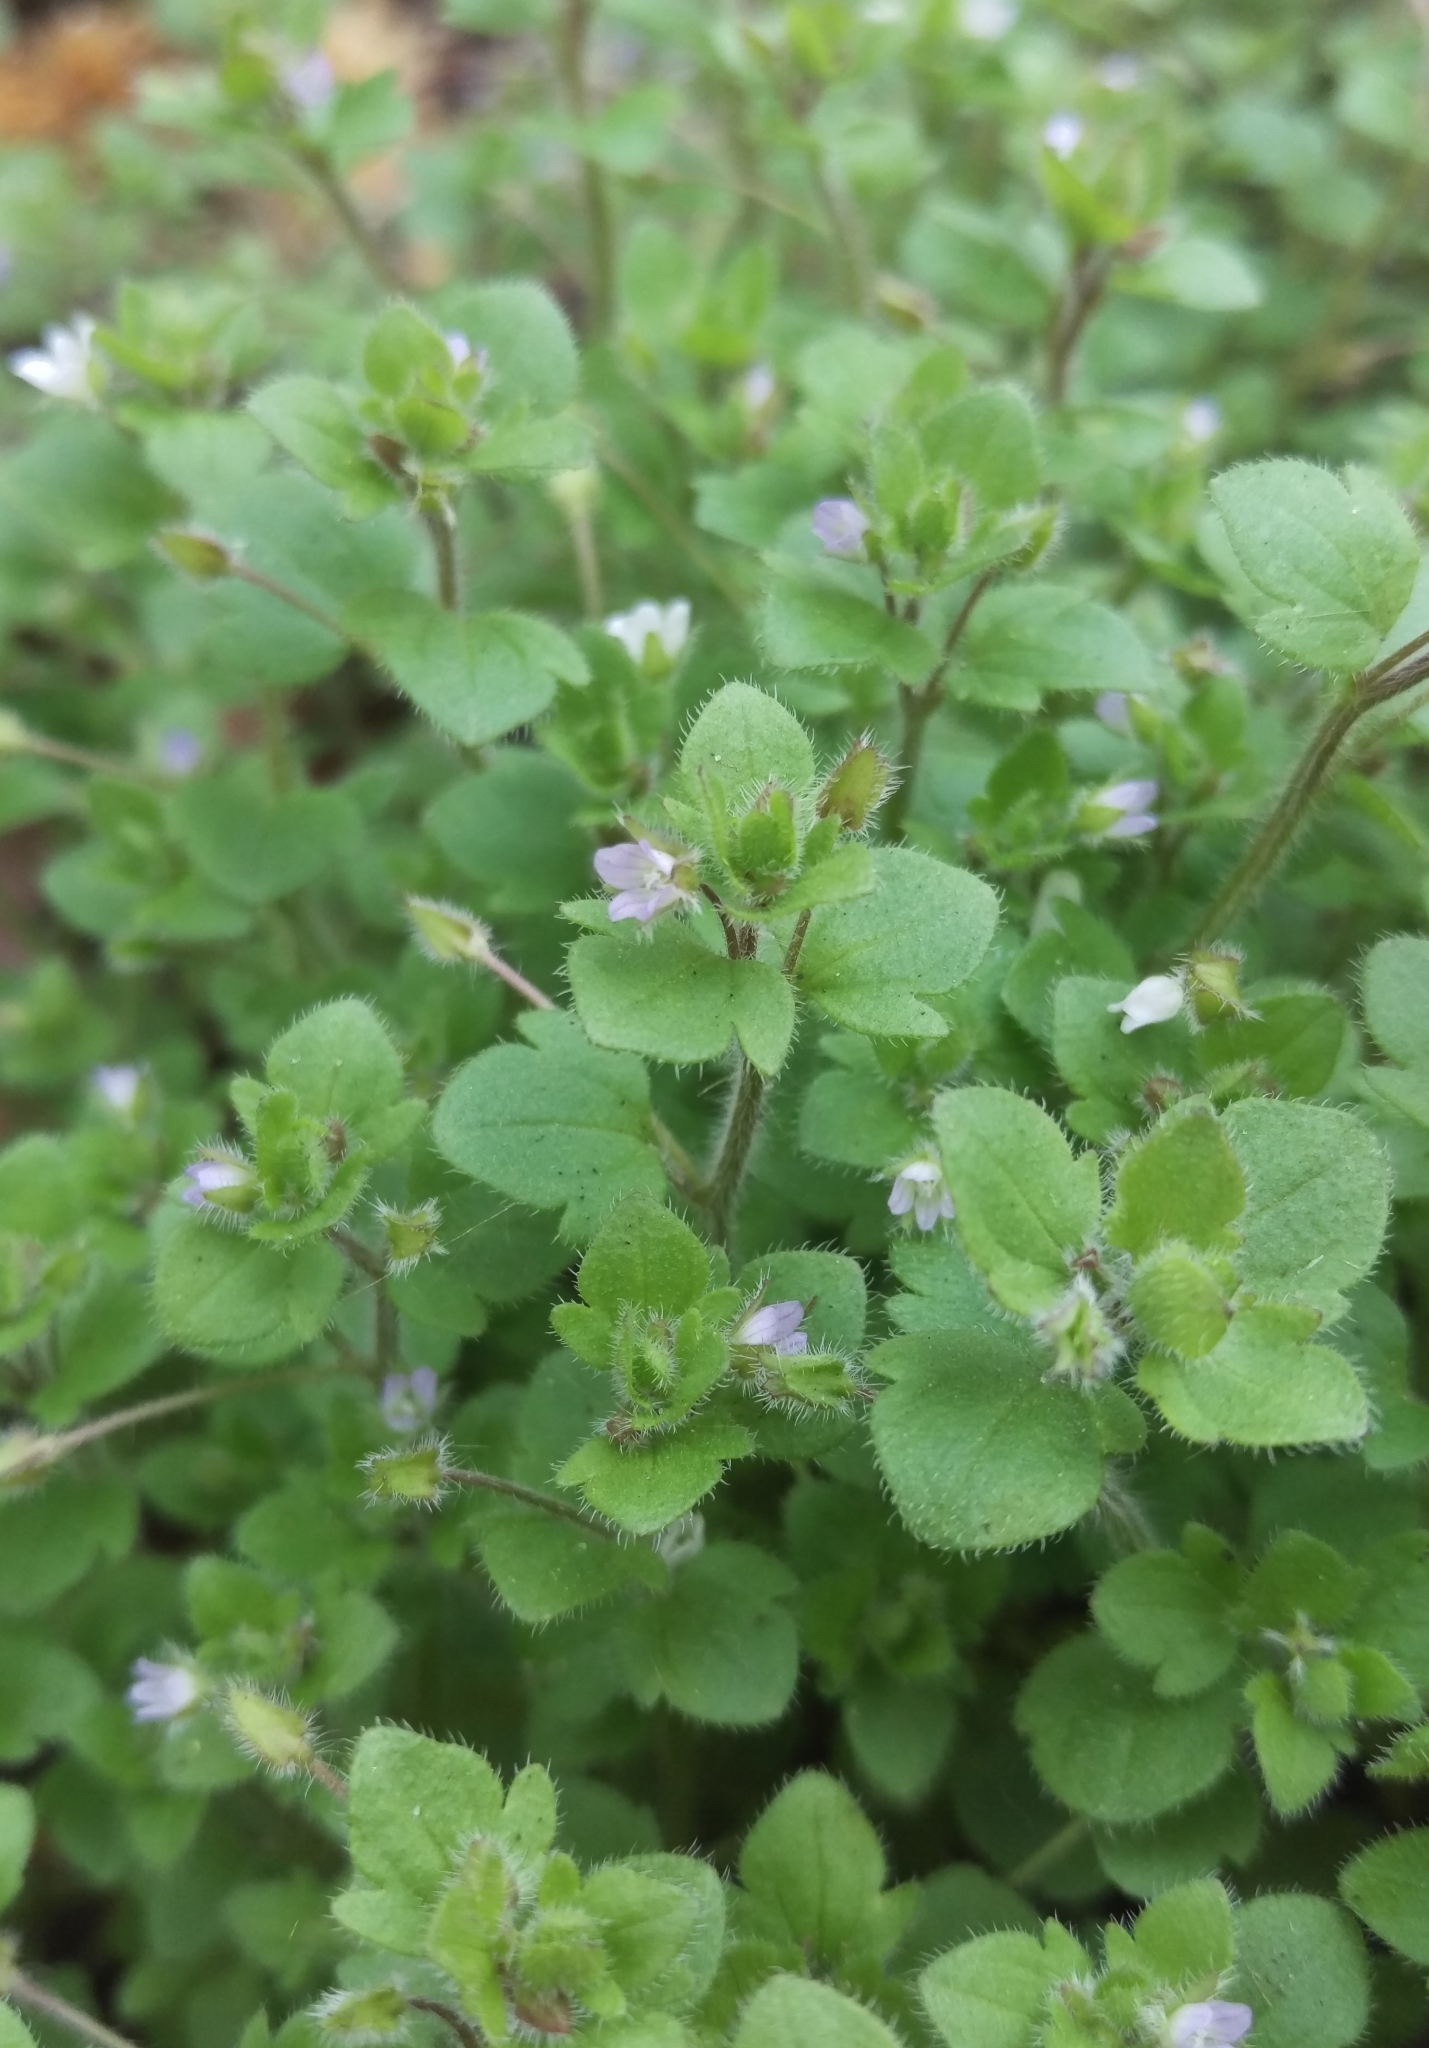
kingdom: Plantae
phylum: Tracheophyta
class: Magnoliopsida
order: Lamiales
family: Plantaginaceae
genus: Veronica
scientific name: Veronica sublobata
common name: False ivy-leaved speedwell
